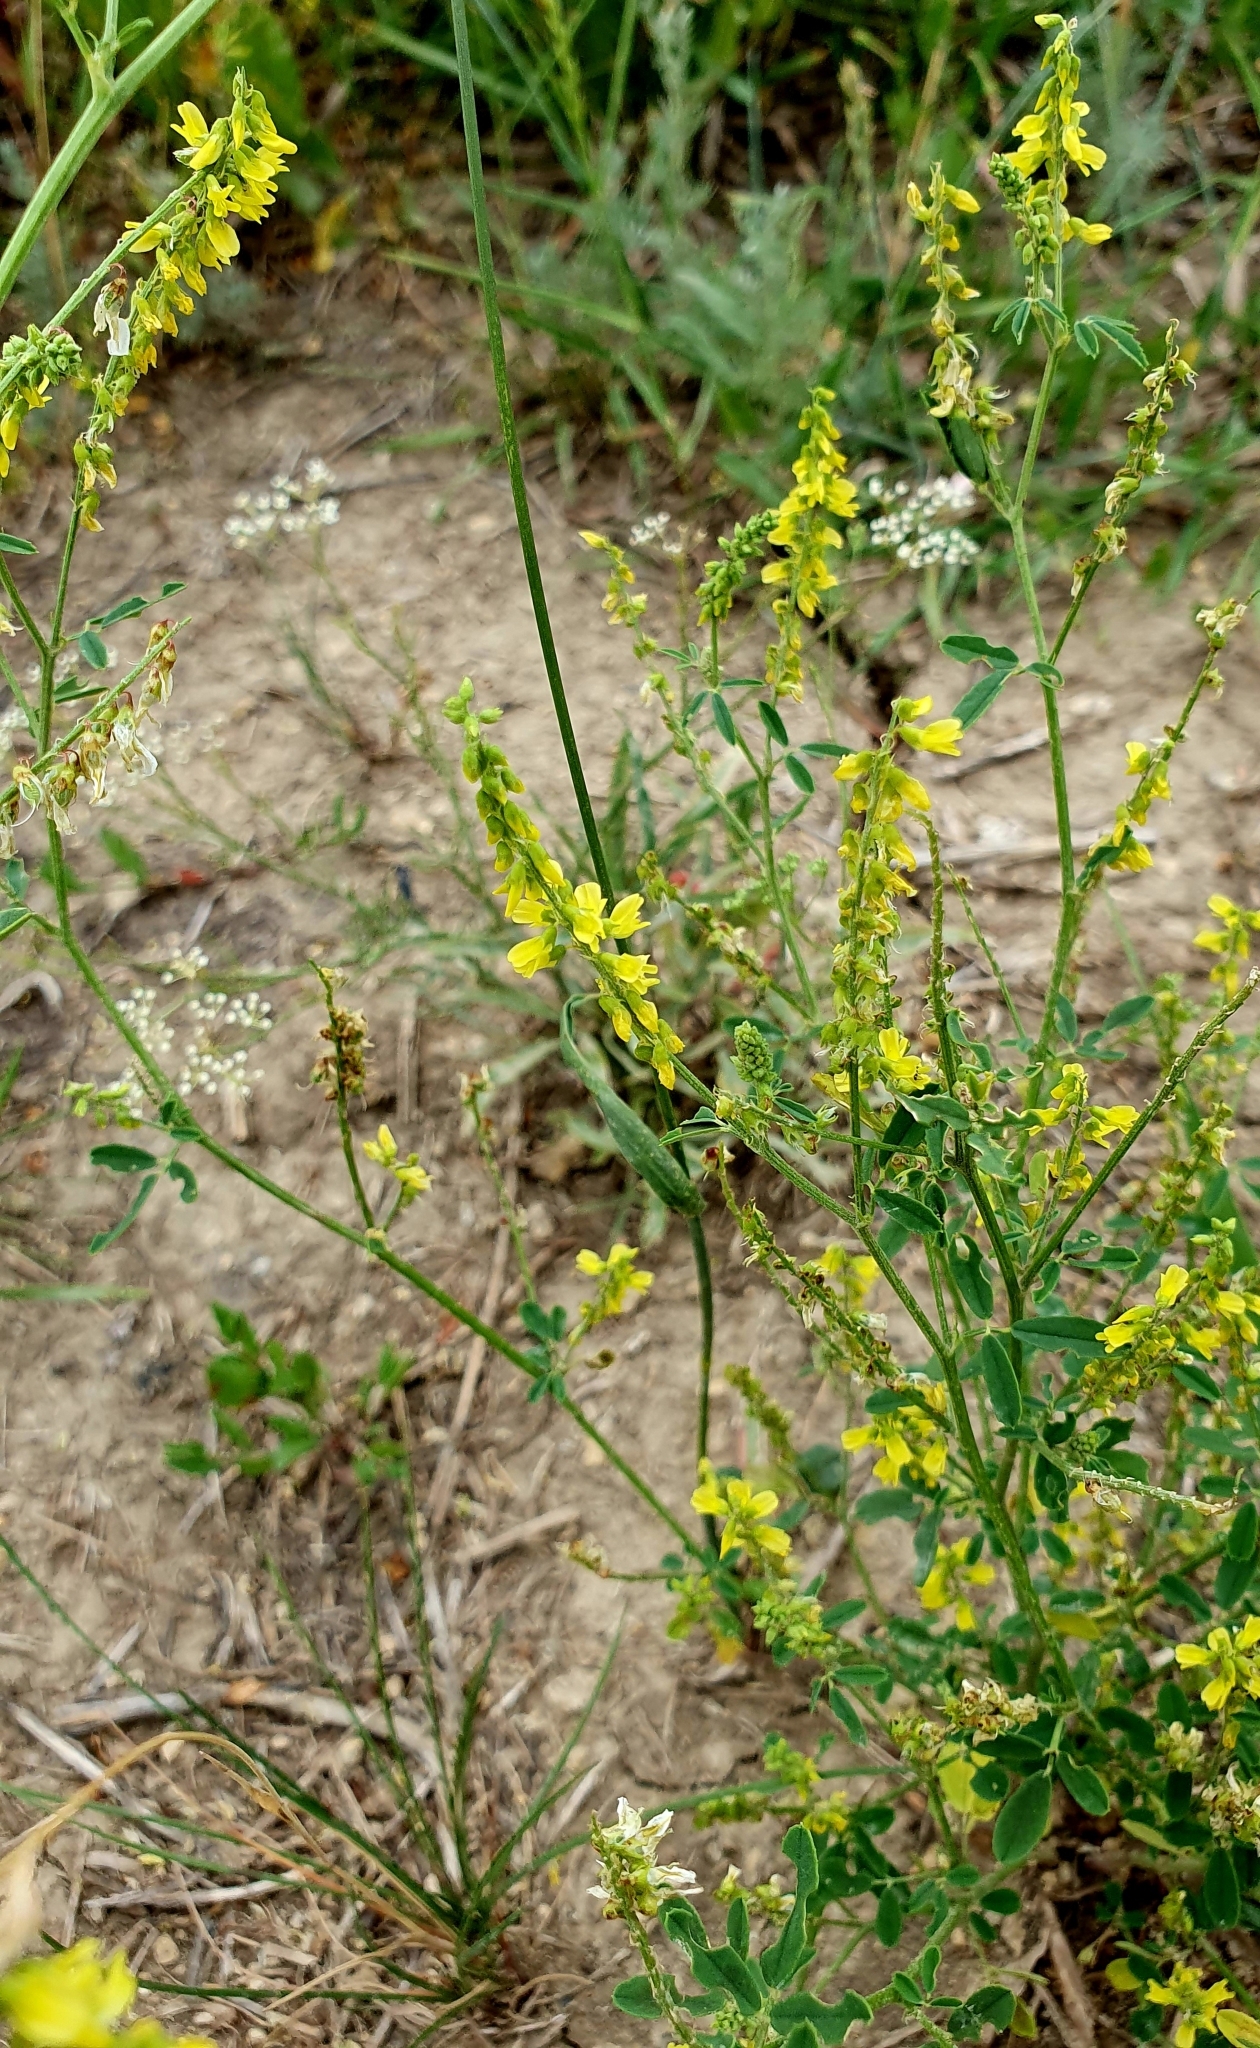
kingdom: Plantae
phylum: Tracheophyta
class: Magnoliopsida
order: Fabales
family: Fabaceae
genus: Melilotus
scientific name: Melilotus officinalis
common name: Sweetclover
